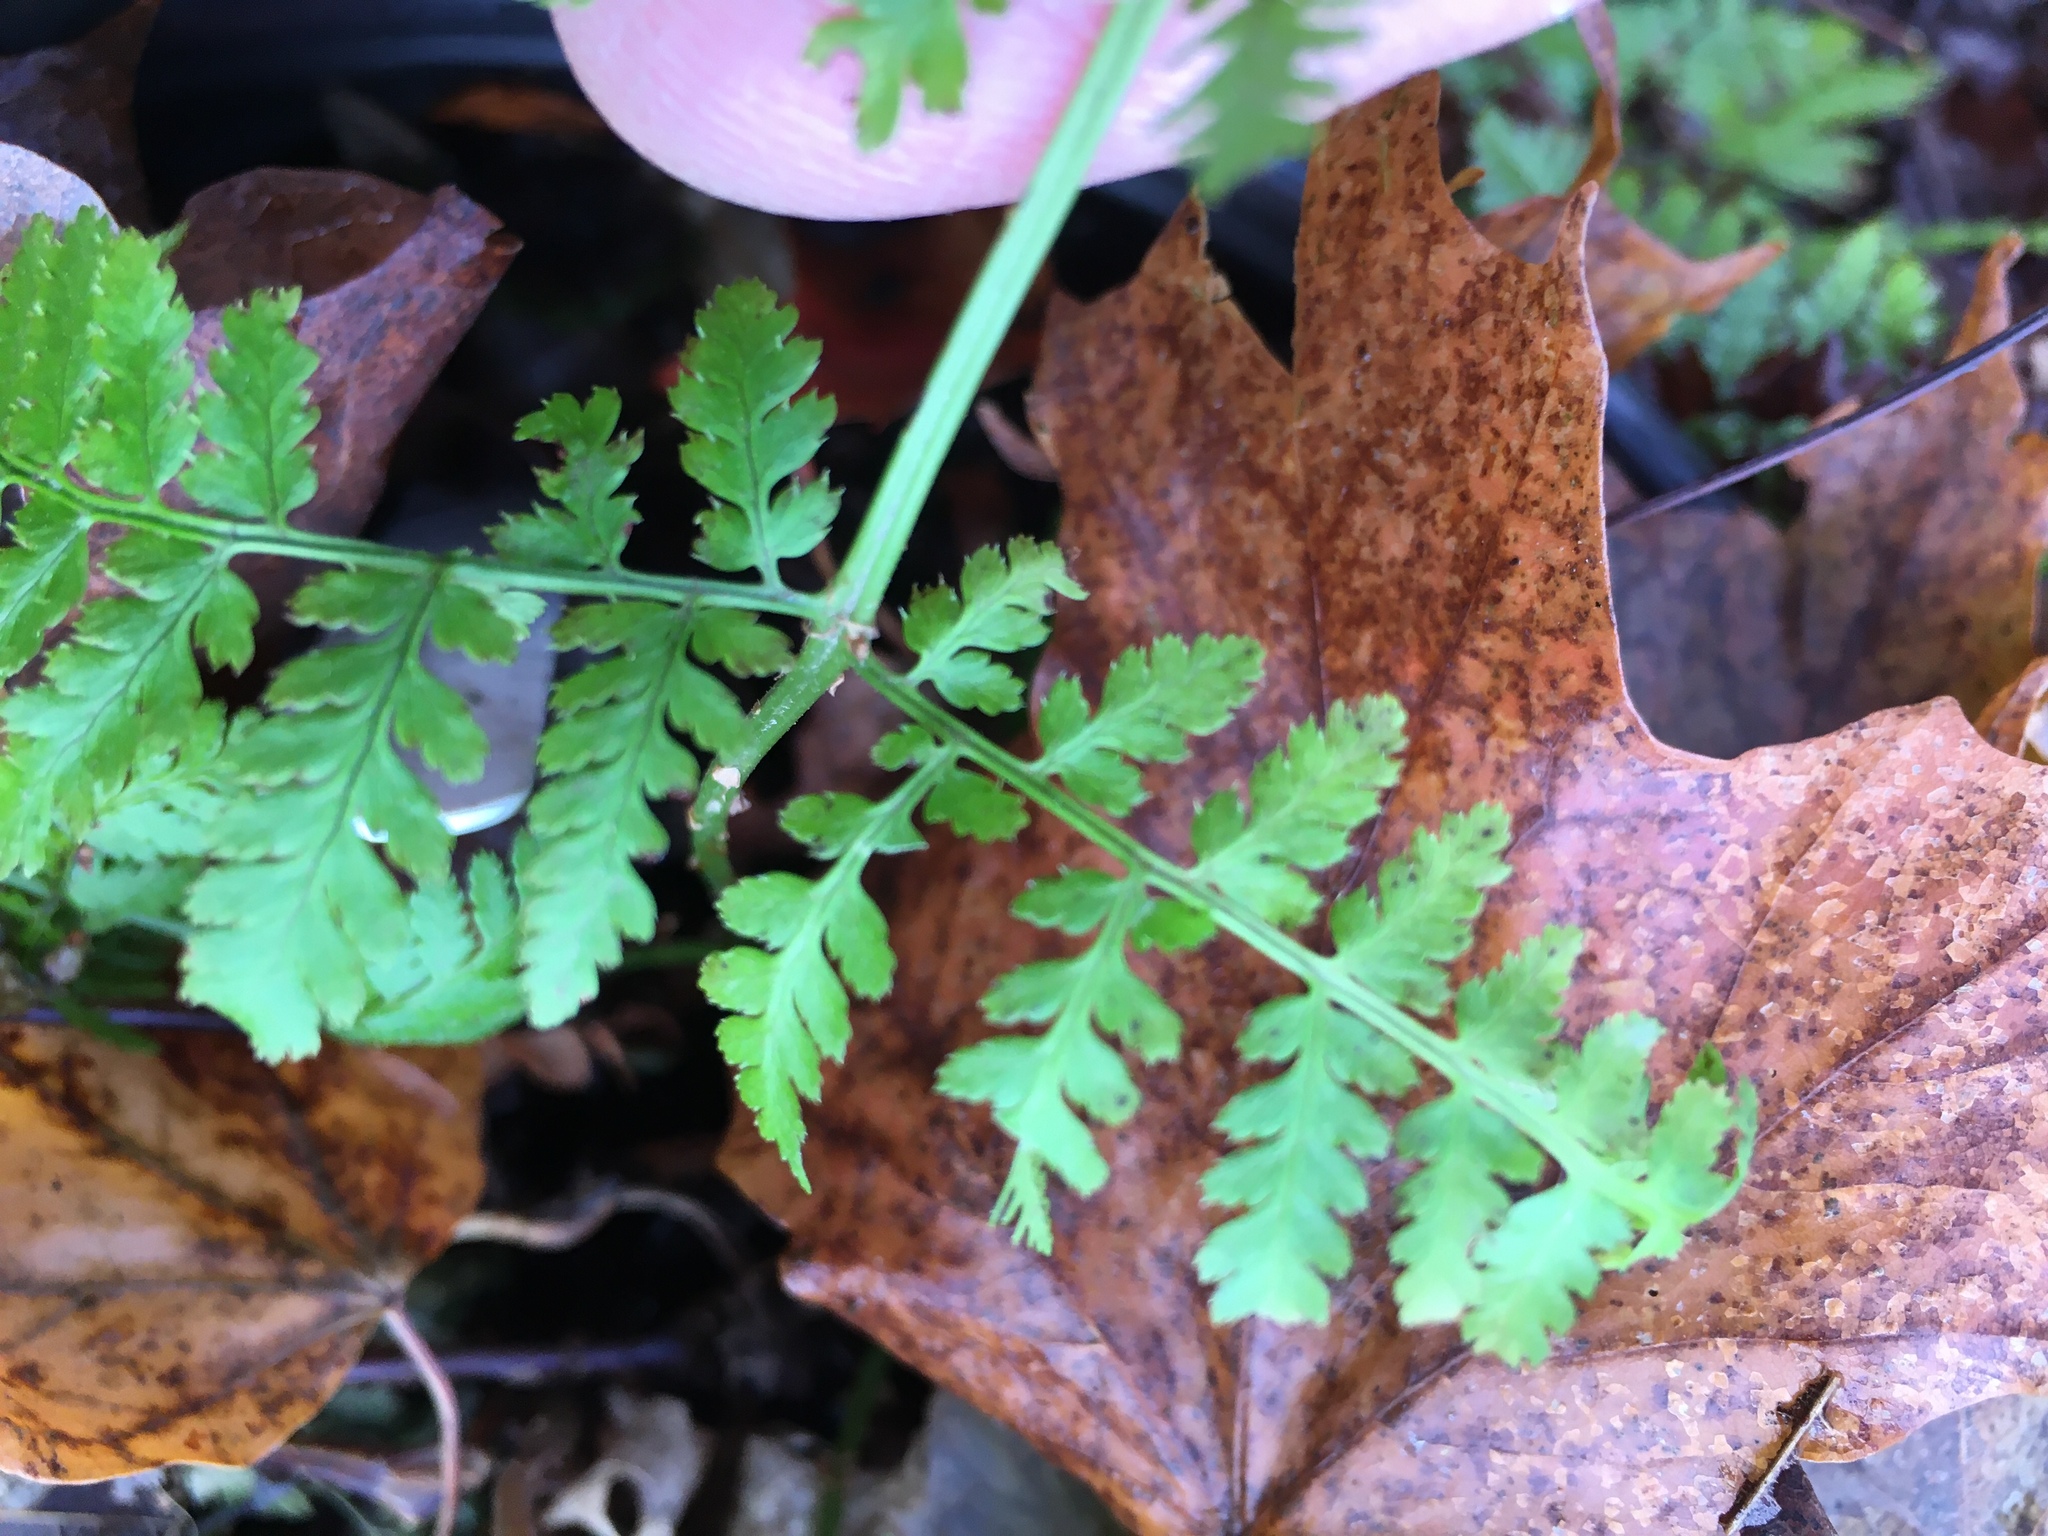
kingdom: Plantae
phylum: Tracheophyta
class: Polypodiopsida
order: Polypodiales
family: Dryopteridaceae
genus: Dryopteris
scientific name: Dryopteris intermedia
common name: Evergreen wood fern
